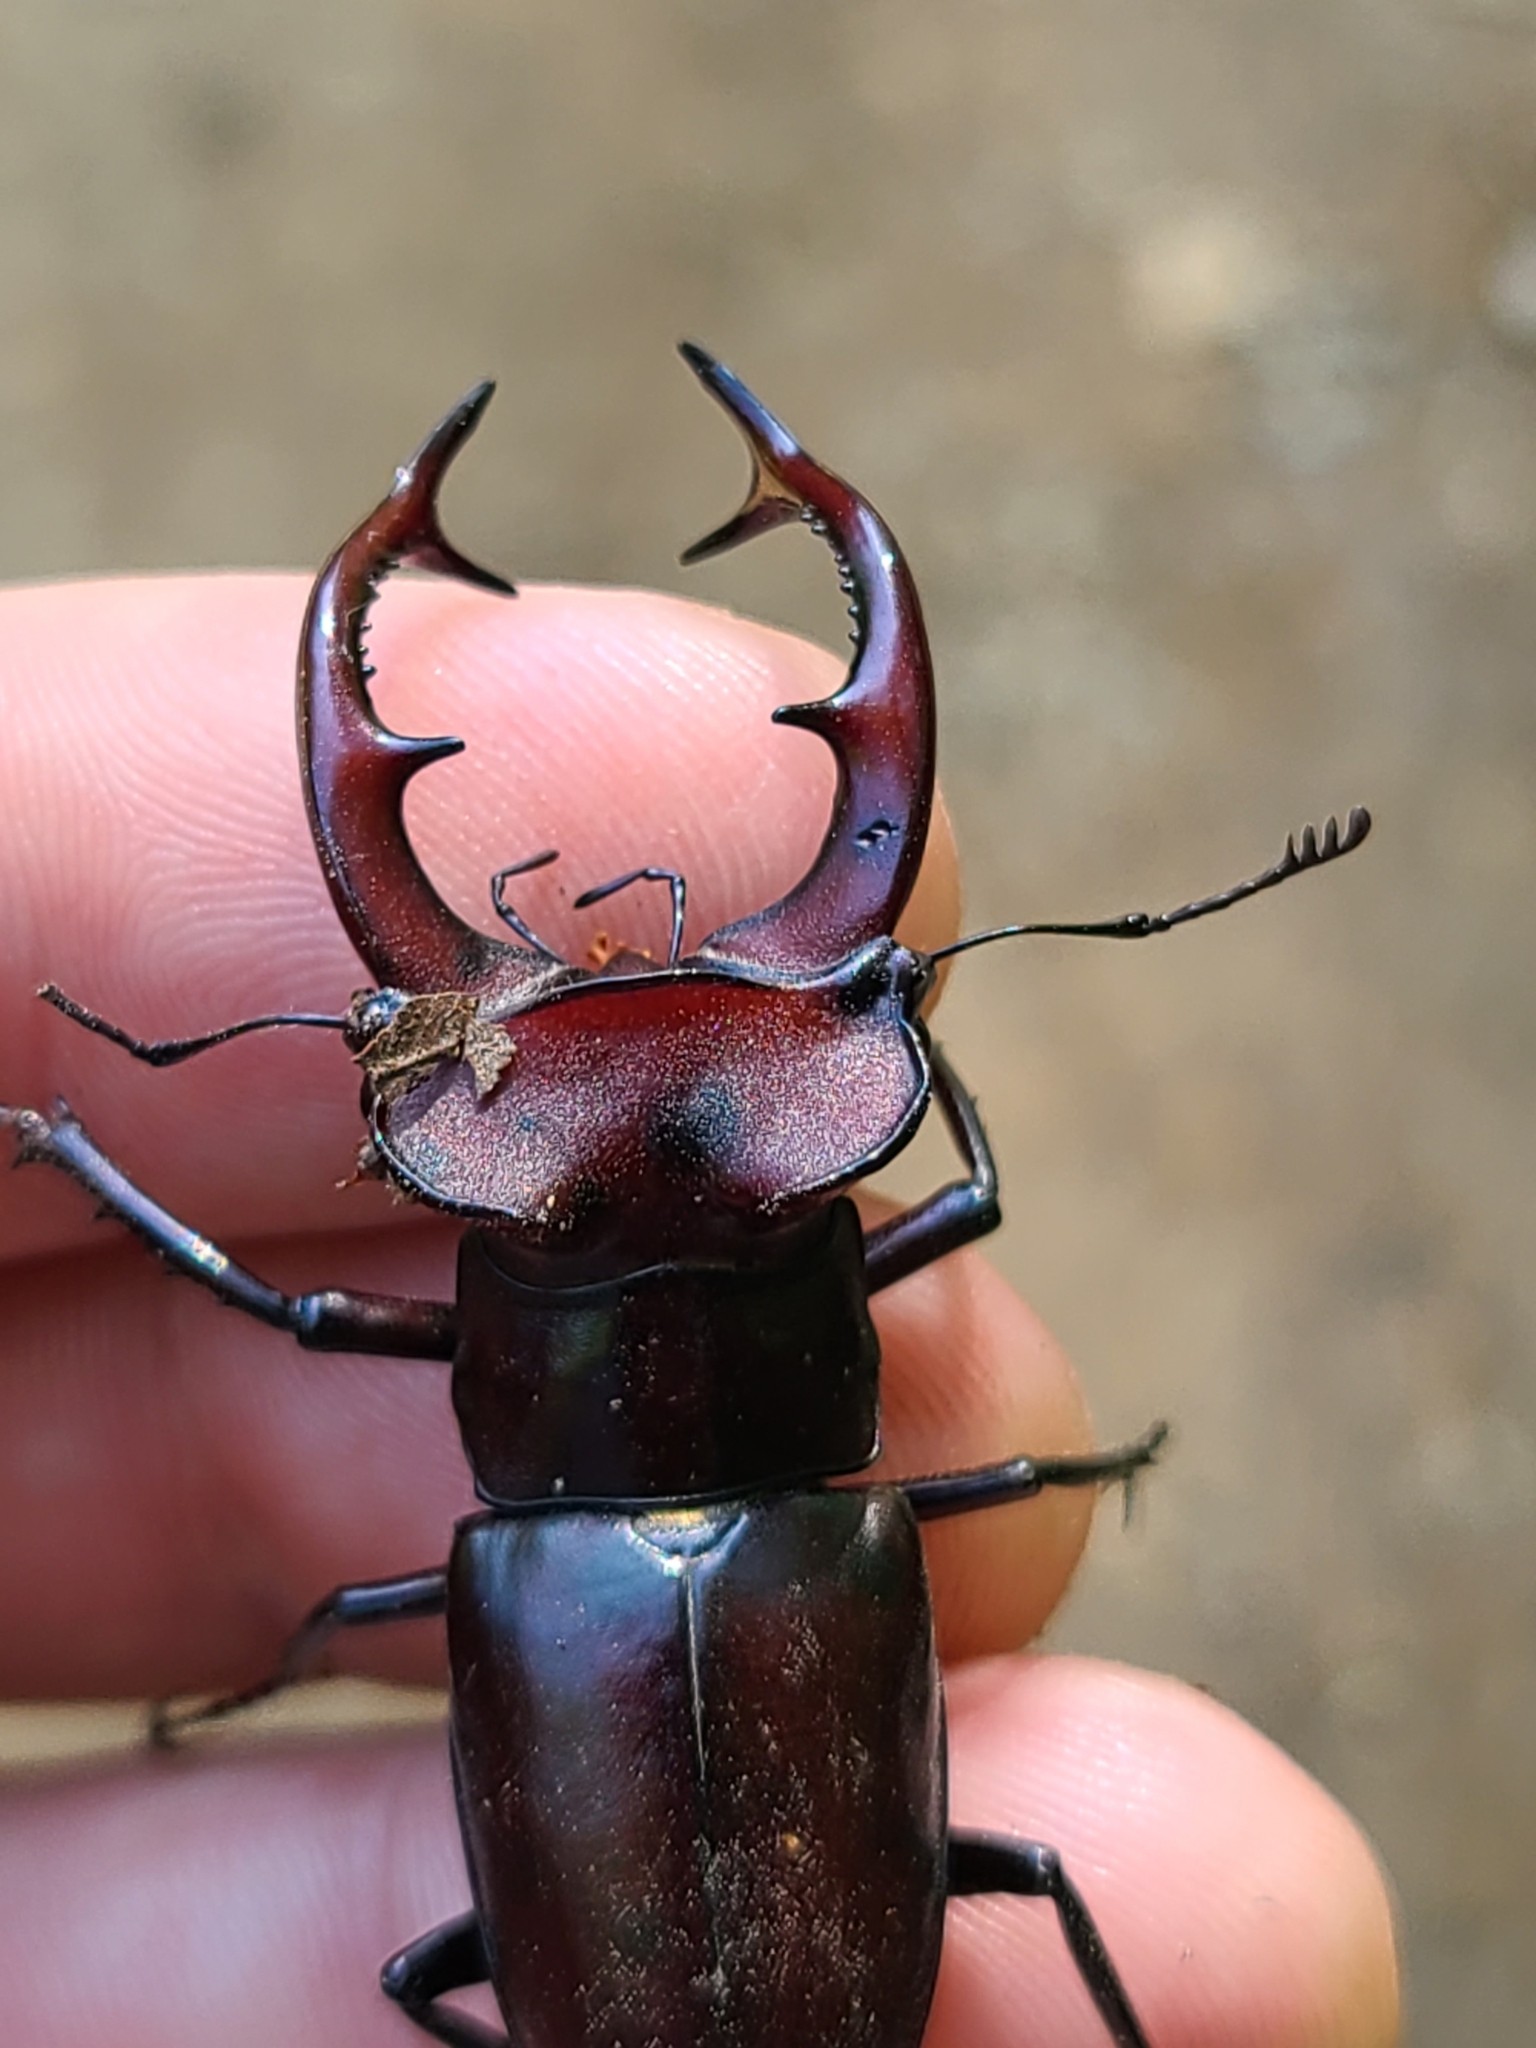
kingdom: Animalia
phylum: Arthropoda
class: Insecta
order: Coleoptera
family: Lucanidae
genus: Lucanus
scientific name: Lucanus elaphus
